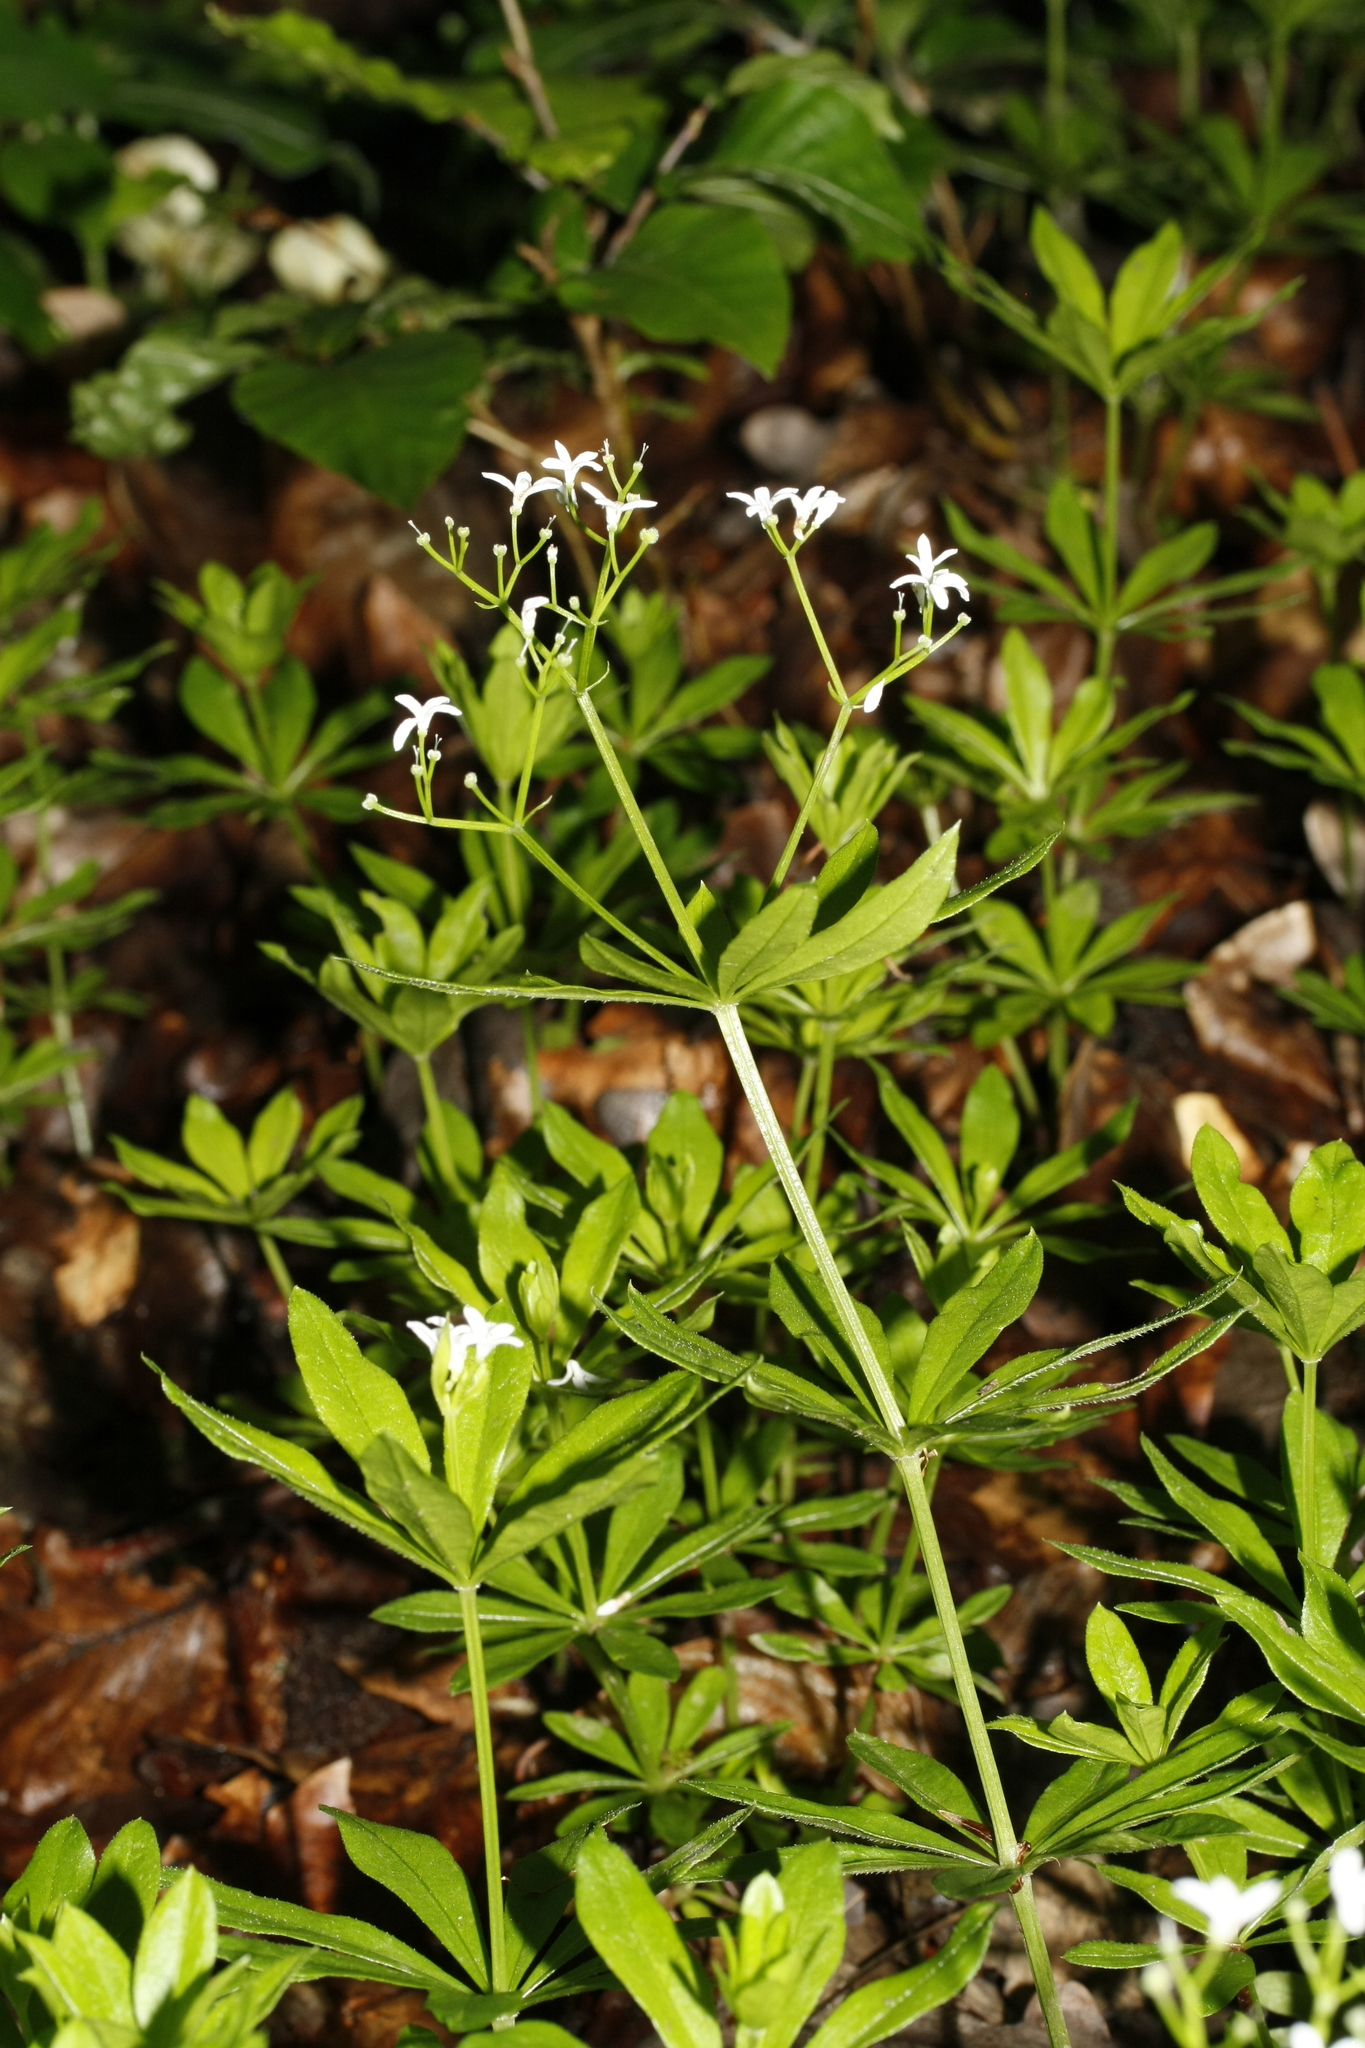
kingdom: Plantae
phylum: Tracheophyta
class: Magnoliopsida
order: Gentianales
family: Rubiaceae
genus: Galium
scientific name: Galium odoratum
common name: Sweet woodruff
